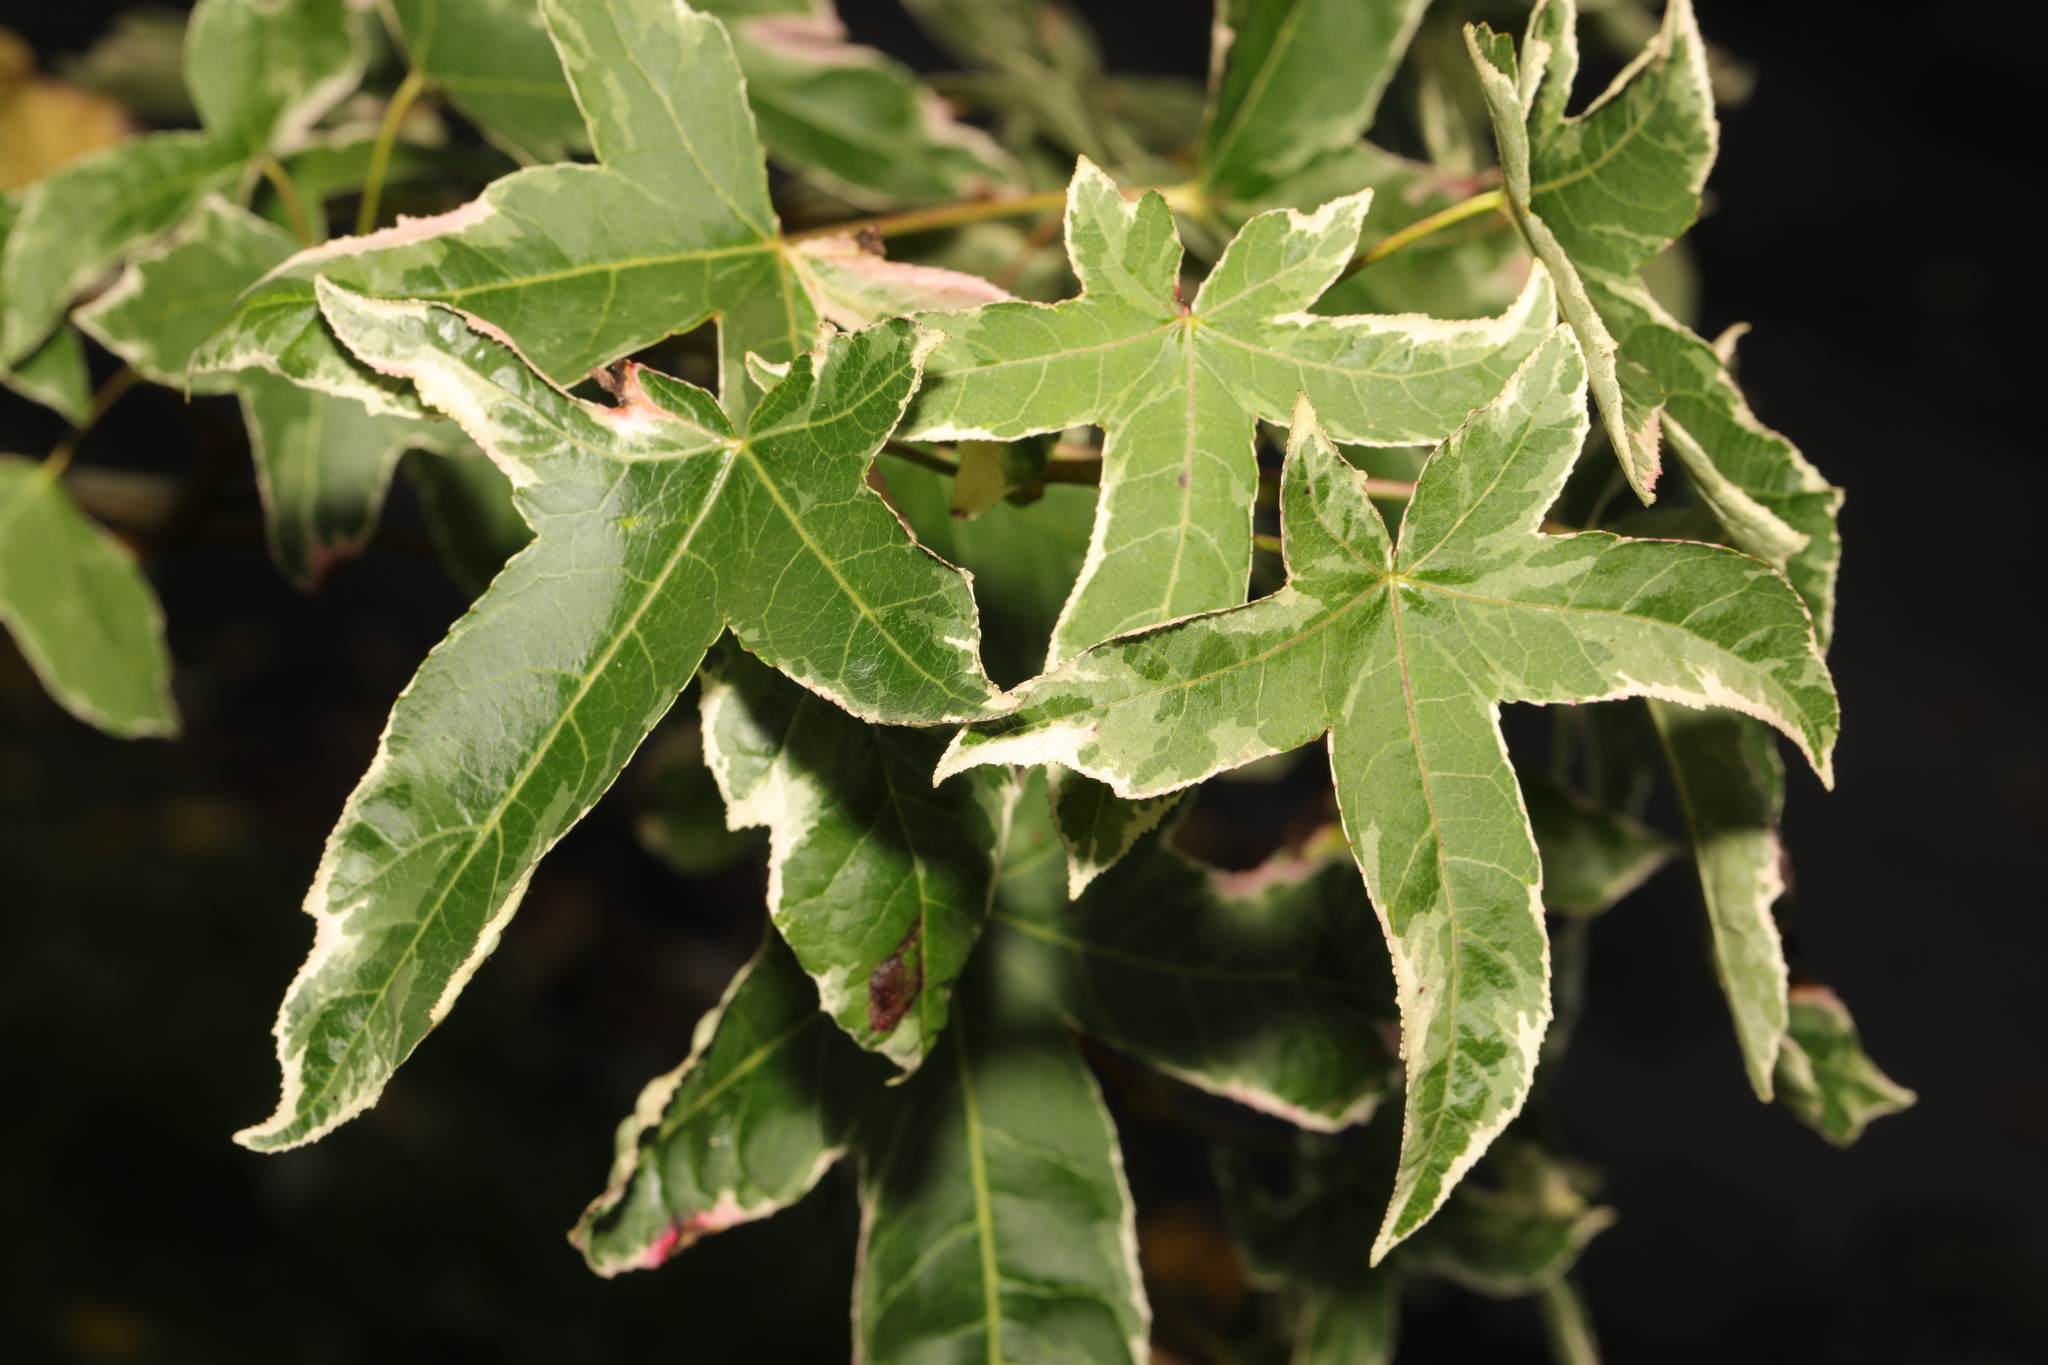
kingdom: Plantae
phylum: Tracheophyta
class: Magnoliopsida
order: Saxifragales
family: Altingiaceae
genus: Liquidambar
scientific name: Liquidambar styraciflua
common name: Sweet gum
